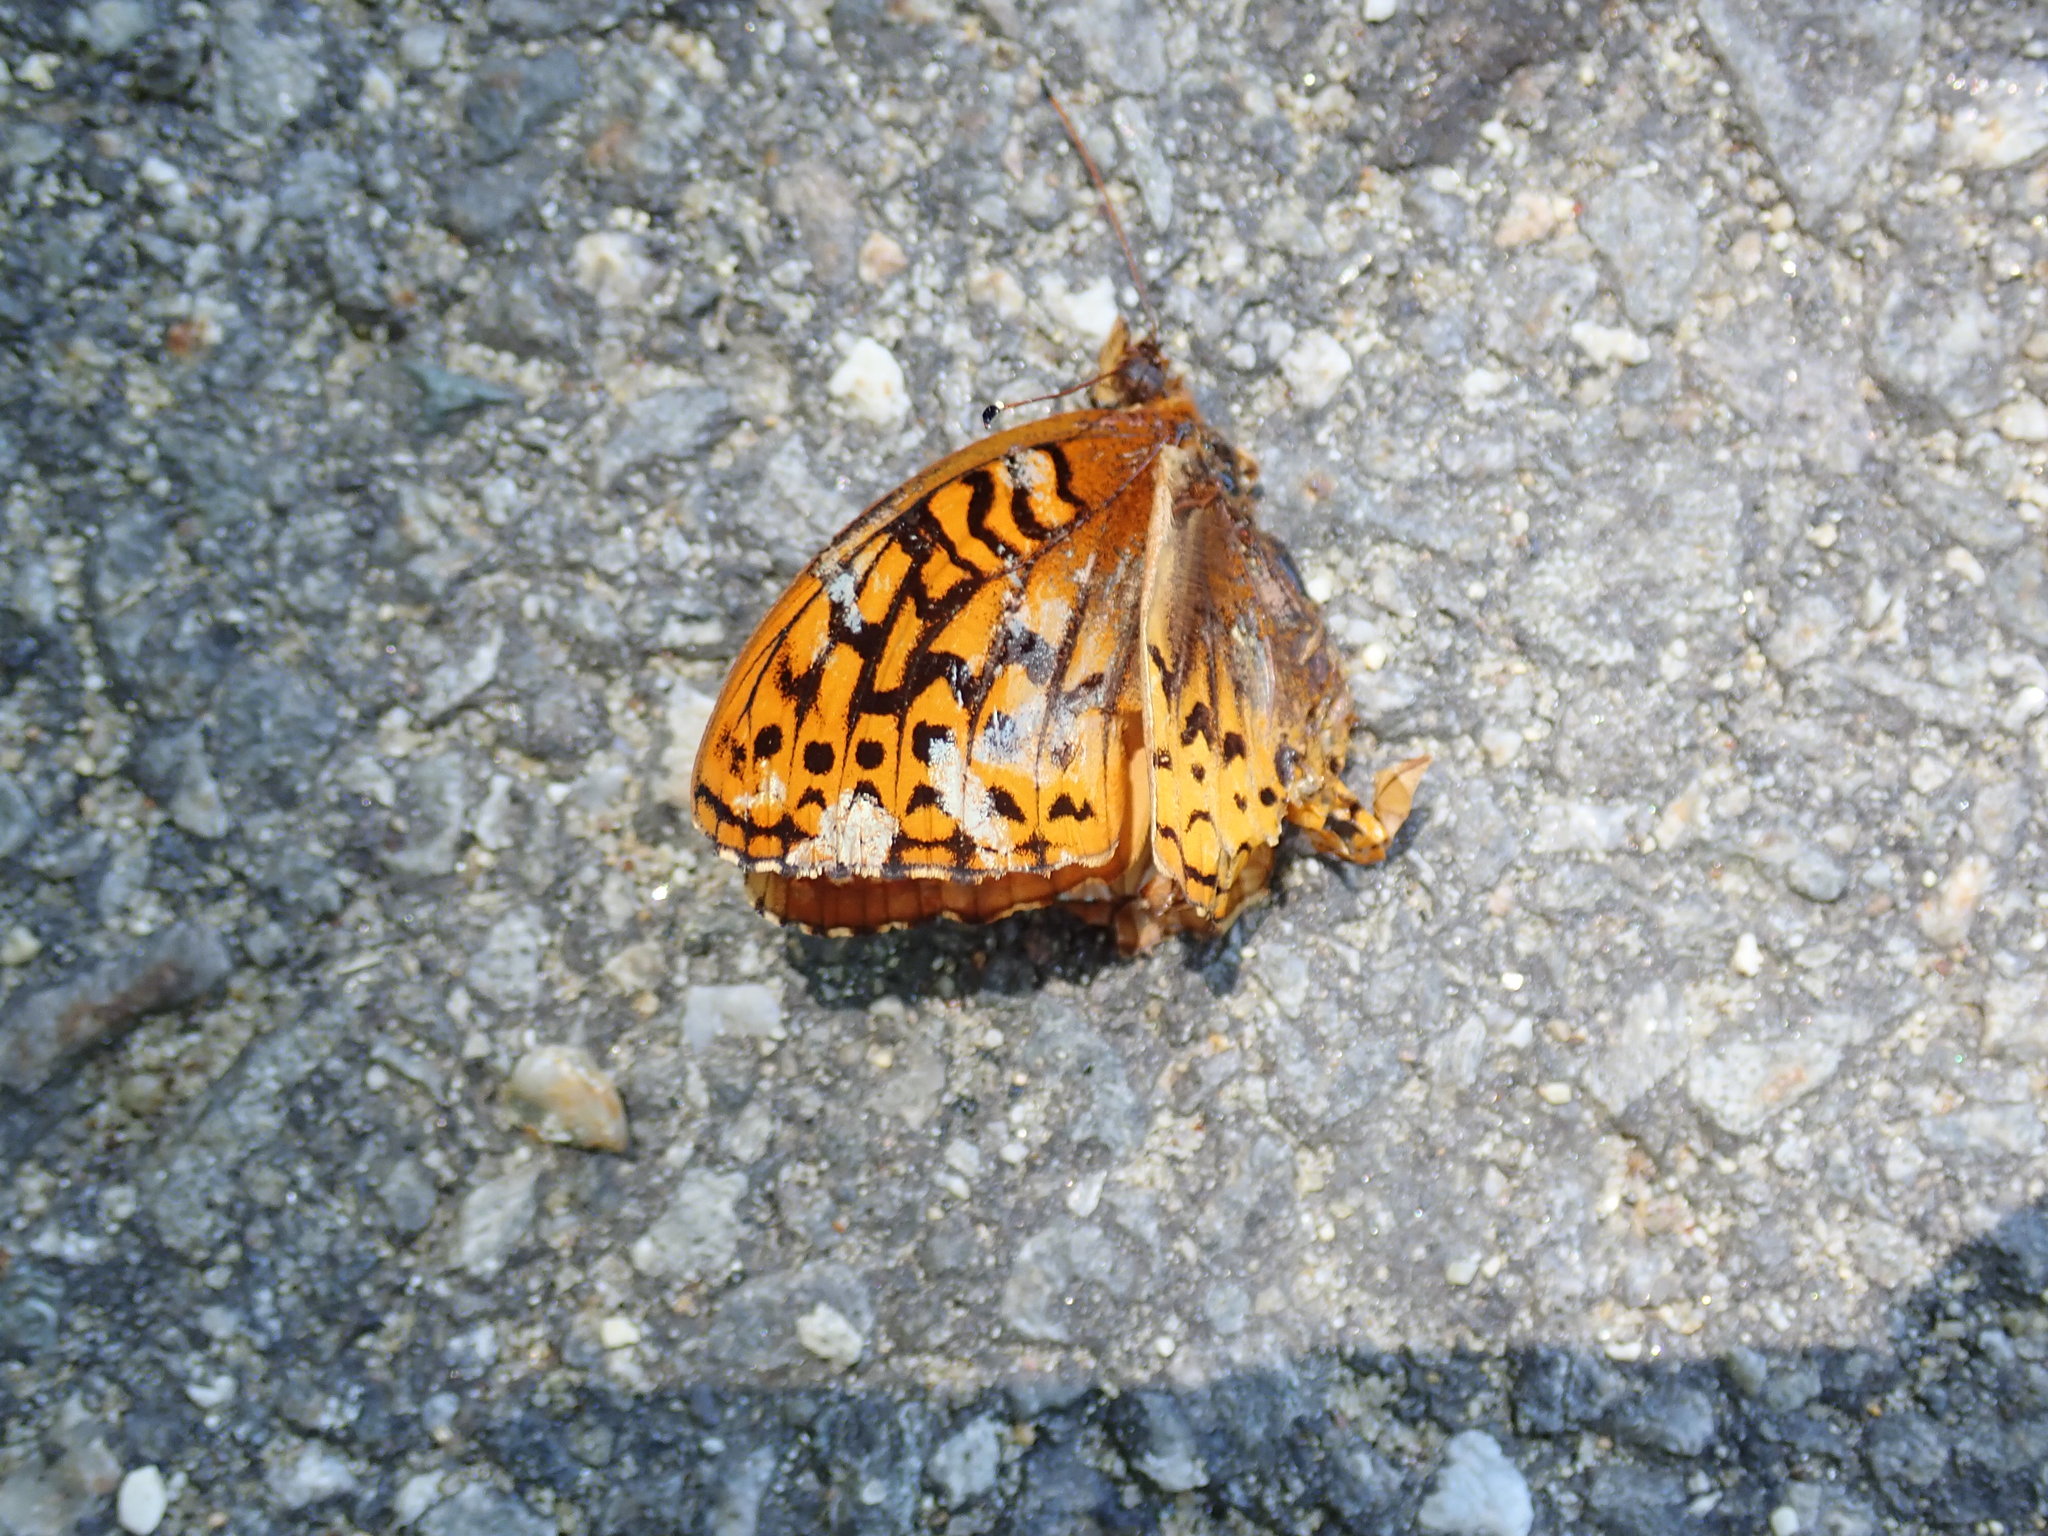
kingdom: Animalia
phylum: Arthropoda
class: Insecta
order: Lepidoptera
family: Nymphalidae
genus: Speyeria
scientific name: Speyeria cybele
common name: Great spangled fritillary
